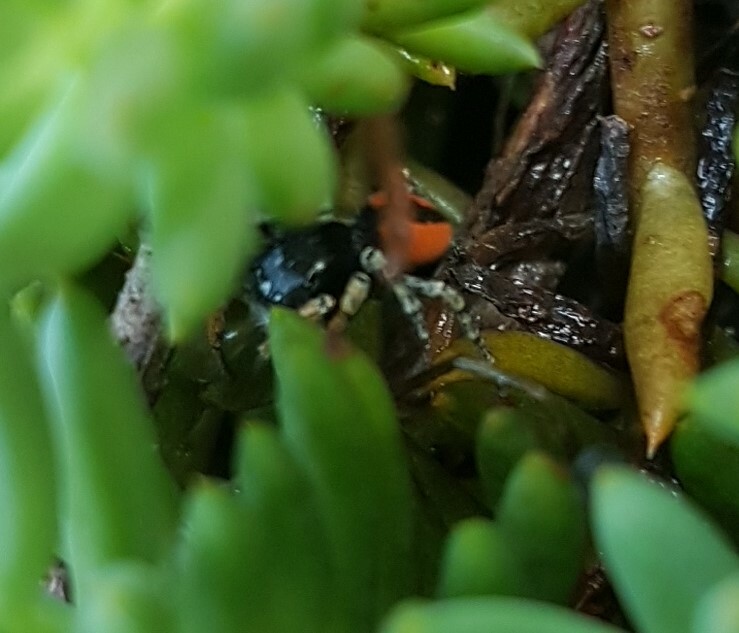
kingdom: Animalia
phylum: Arthropoda
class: Arachnida
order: Araneae
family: Salticidae
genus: Philaeus
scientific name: Philaeus chrysops
